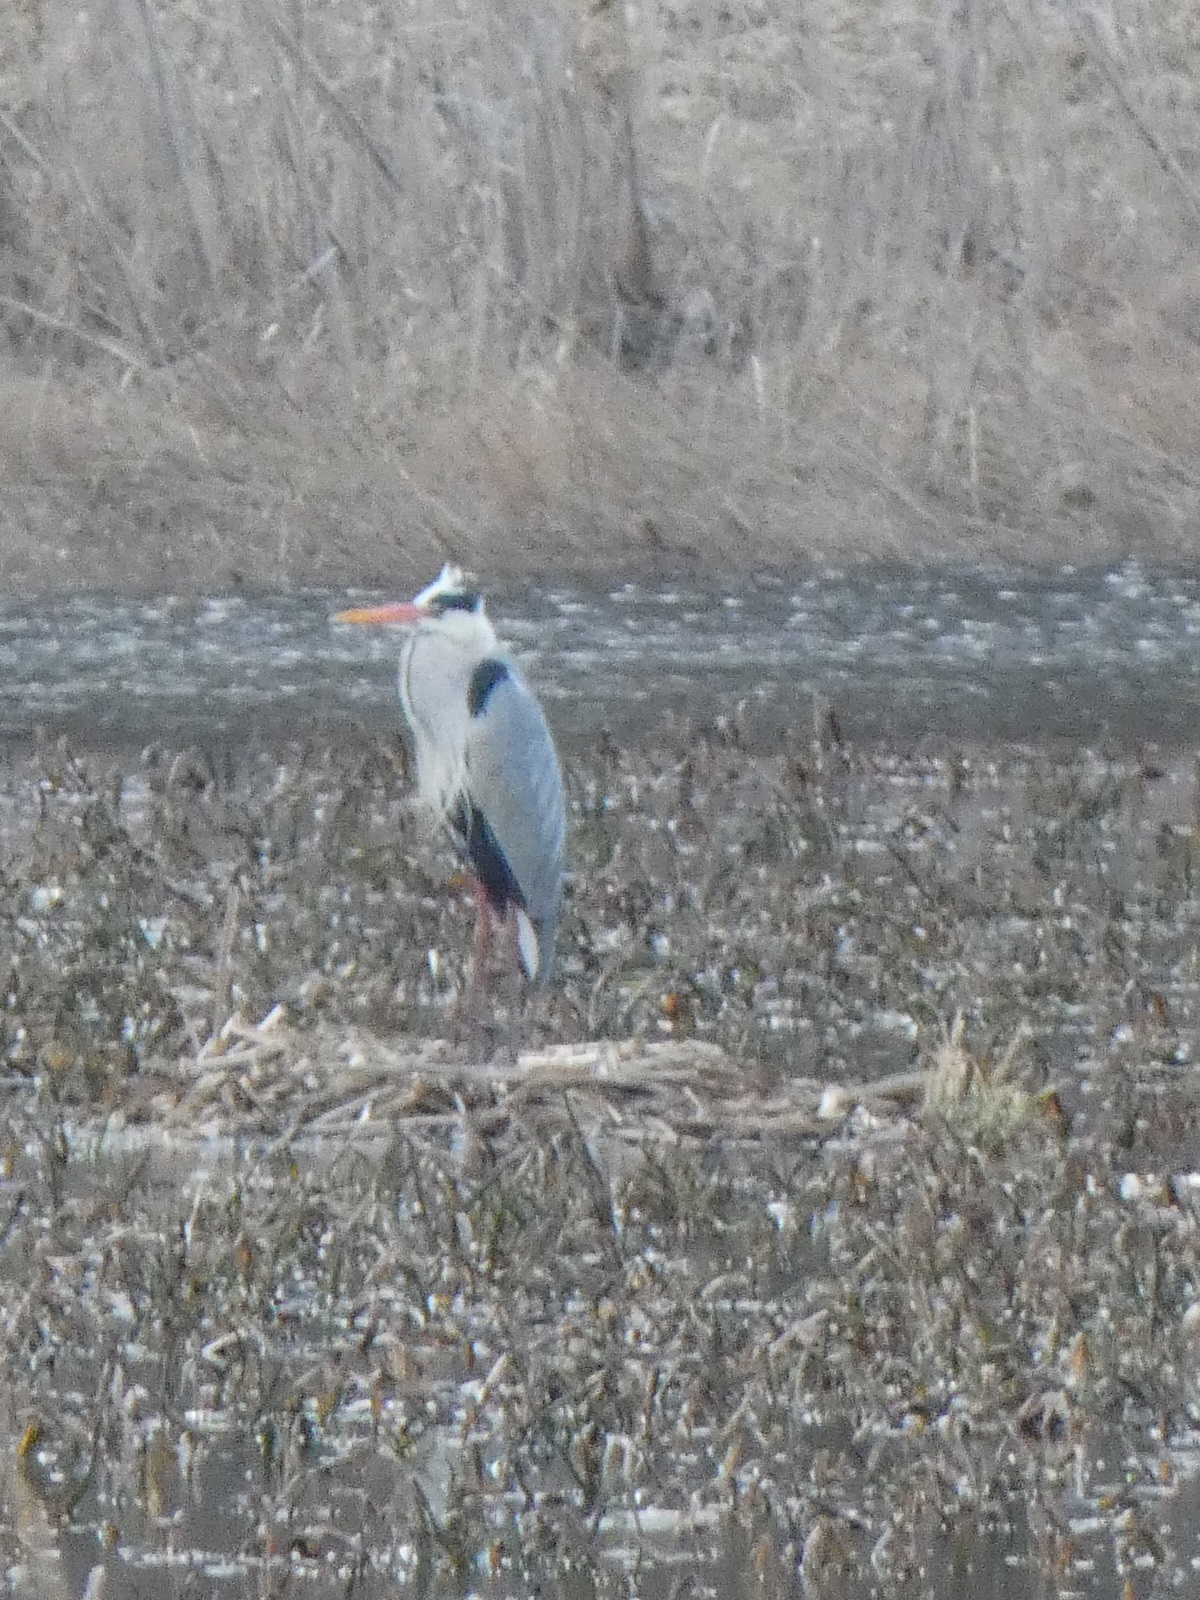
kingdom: Animalia
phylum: Chordata
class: Aves
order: Pelecaniformes
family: Ardeidae
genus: Ardea
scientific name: Ardea cinerea
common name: Grey heron
